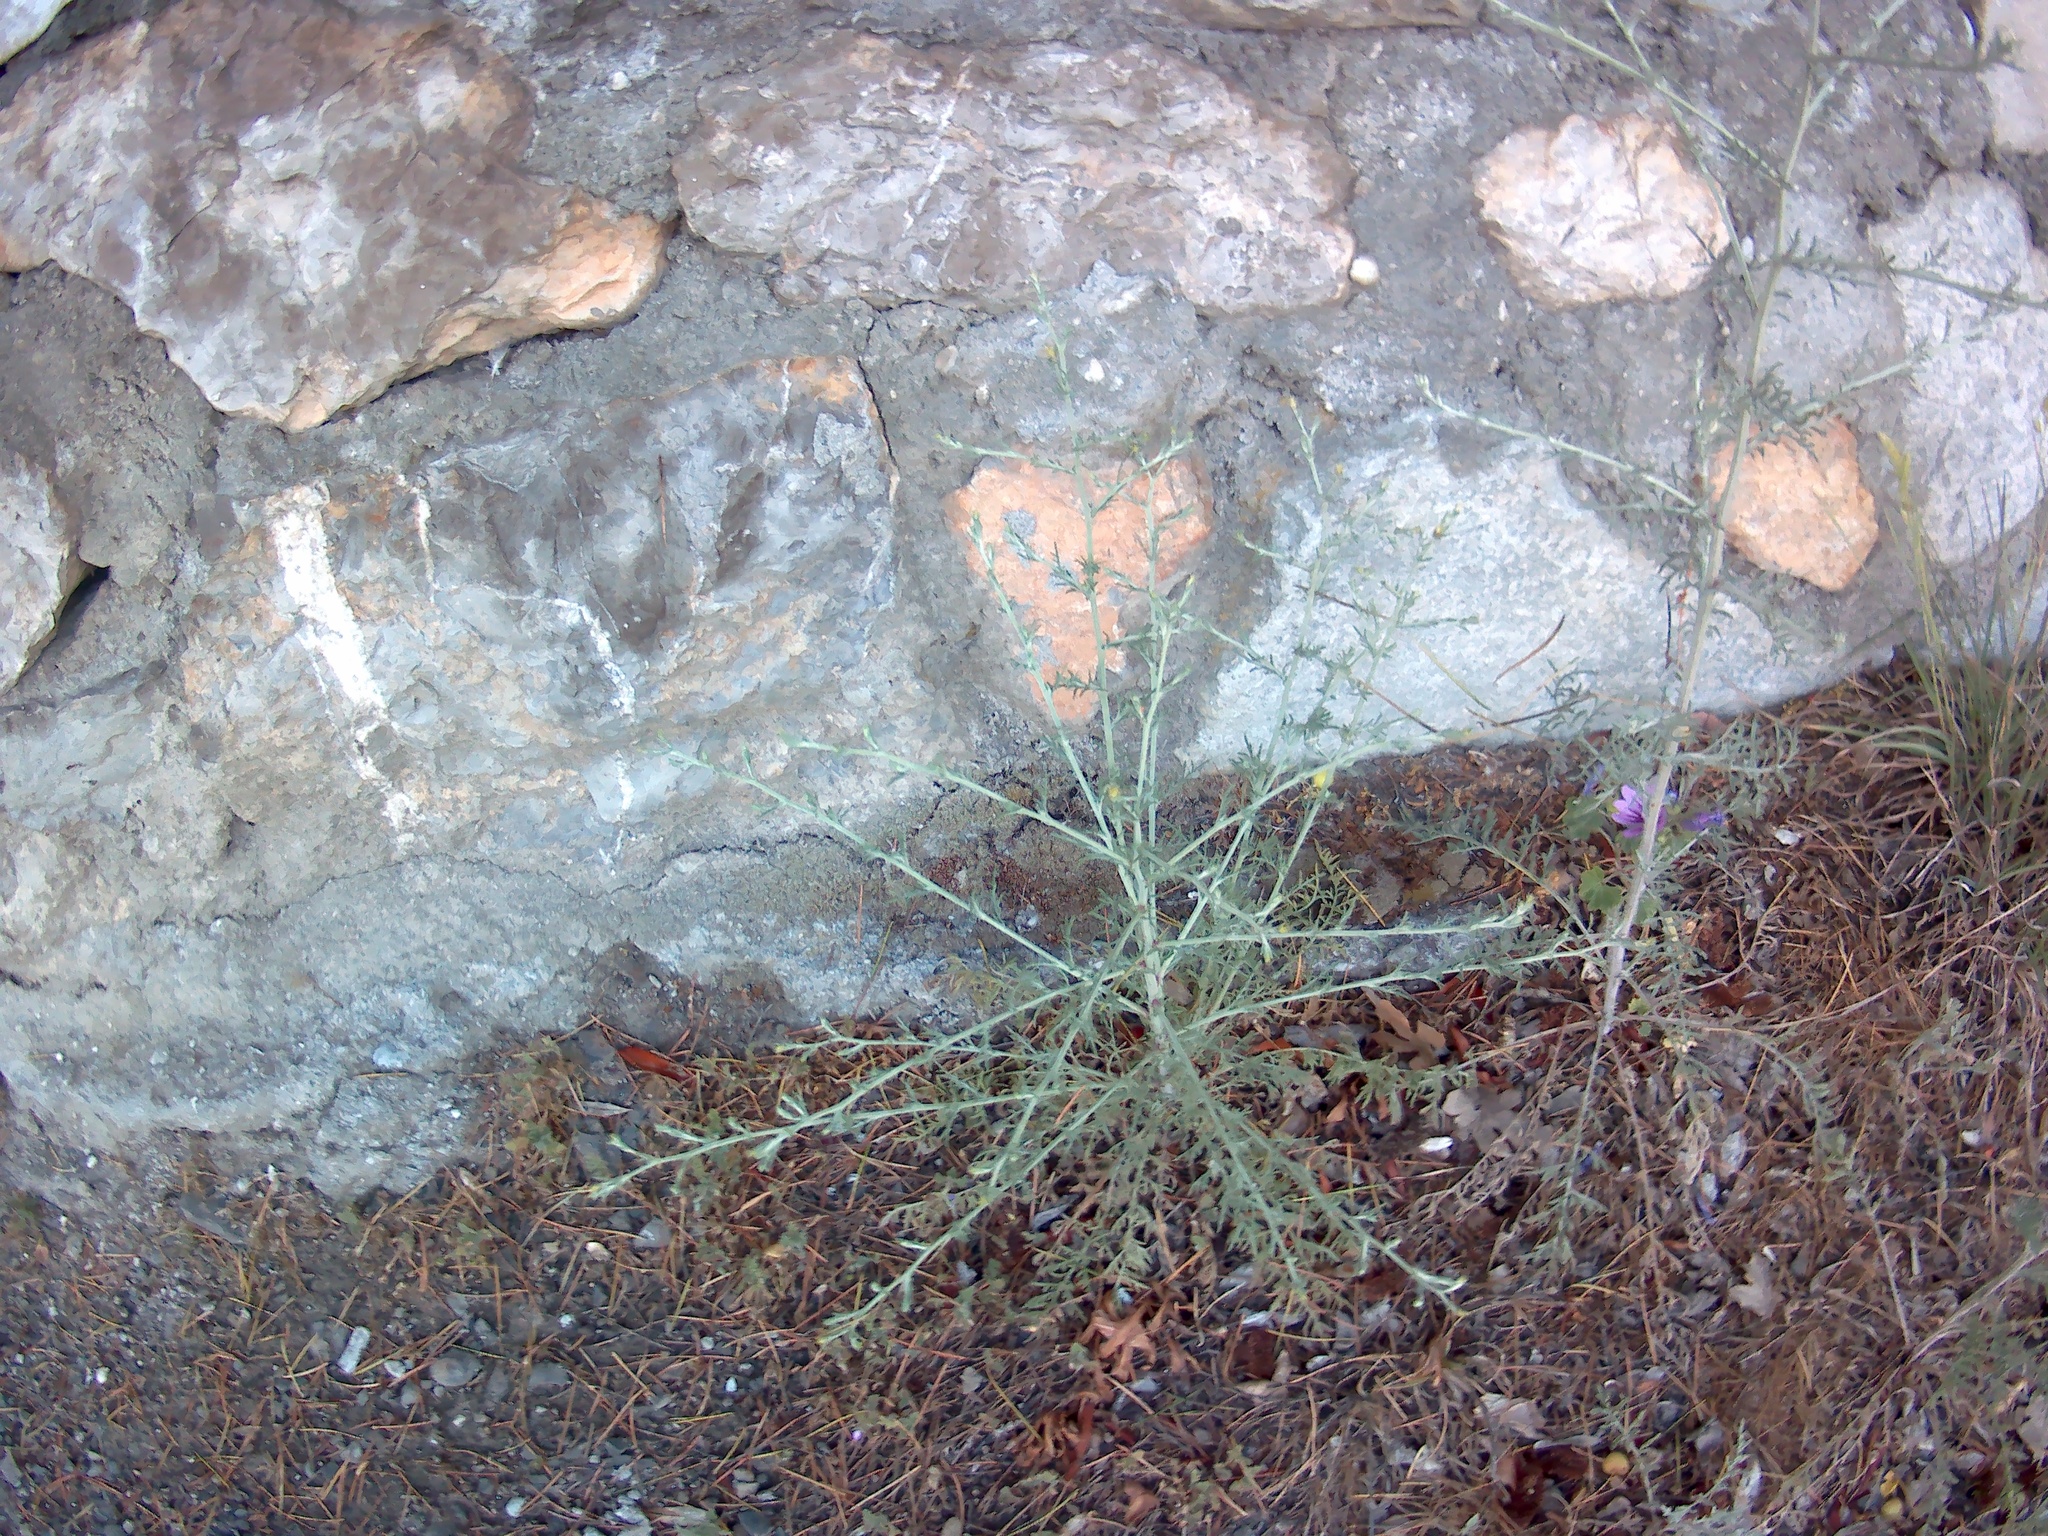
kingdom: Plantae
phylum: Tracheophyta
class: Magnoliopsida
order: Asterales
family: Asteraceae
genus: Centaurea
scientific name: Centaurea diffusa
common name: Diffuse knapweed
